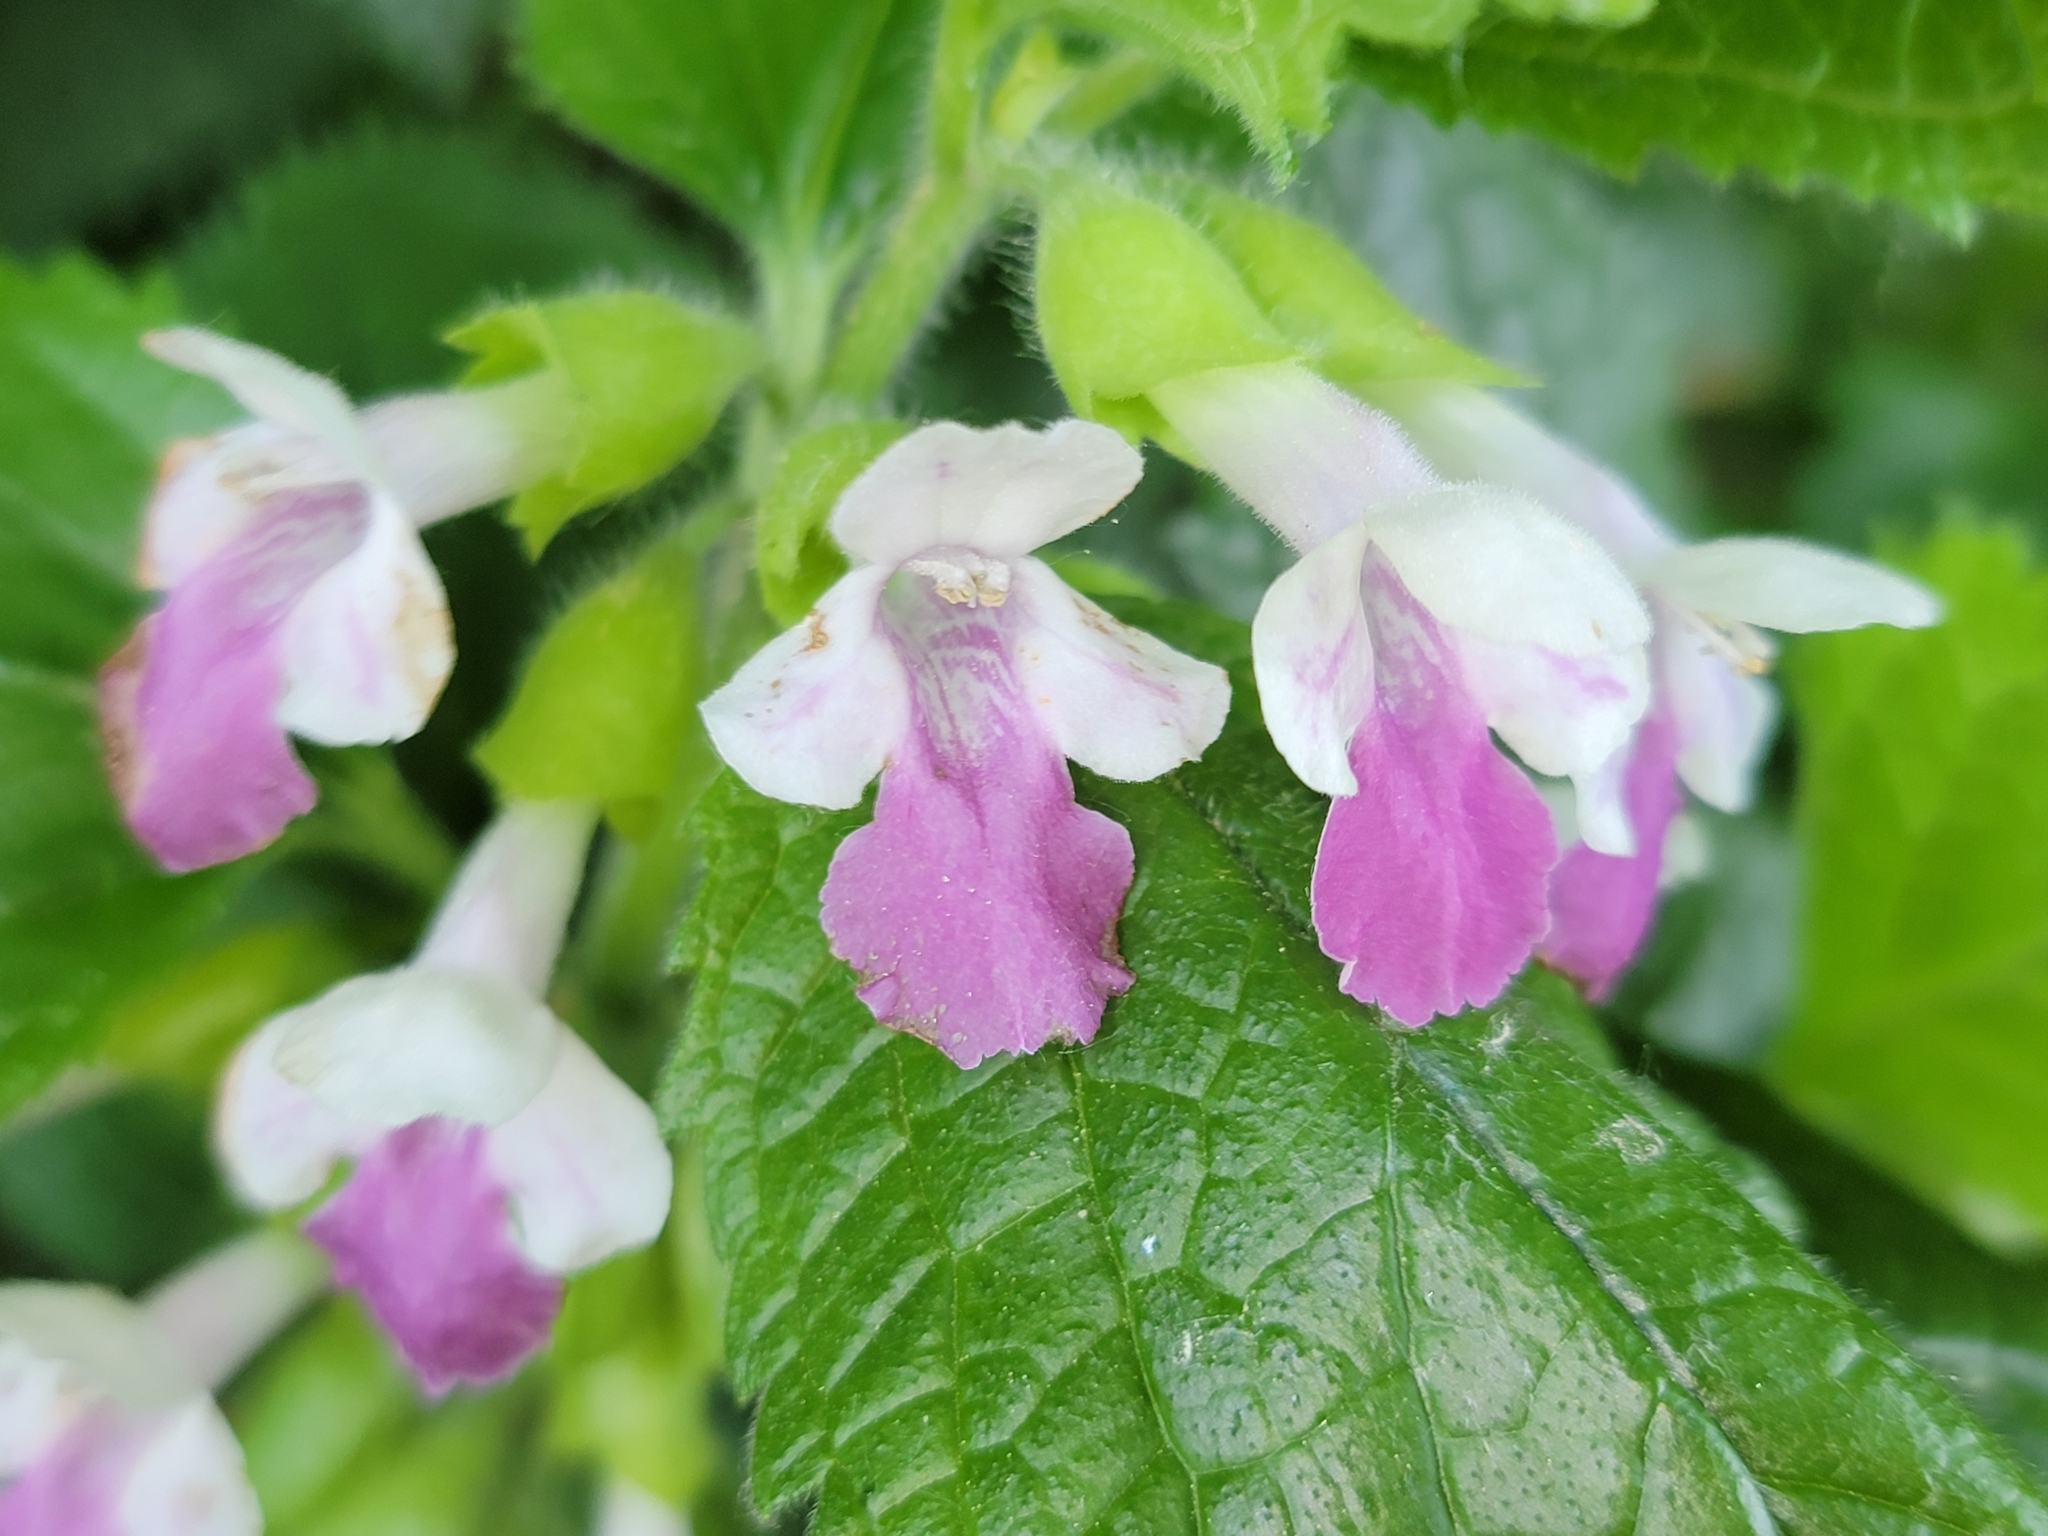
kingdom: Plantae
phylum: Tracheophyta
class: Magnoliopsida
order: Lamiales
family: Lamiaceae
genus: Melittis
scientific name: Melittis melissophyllum
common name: Bastard balm
